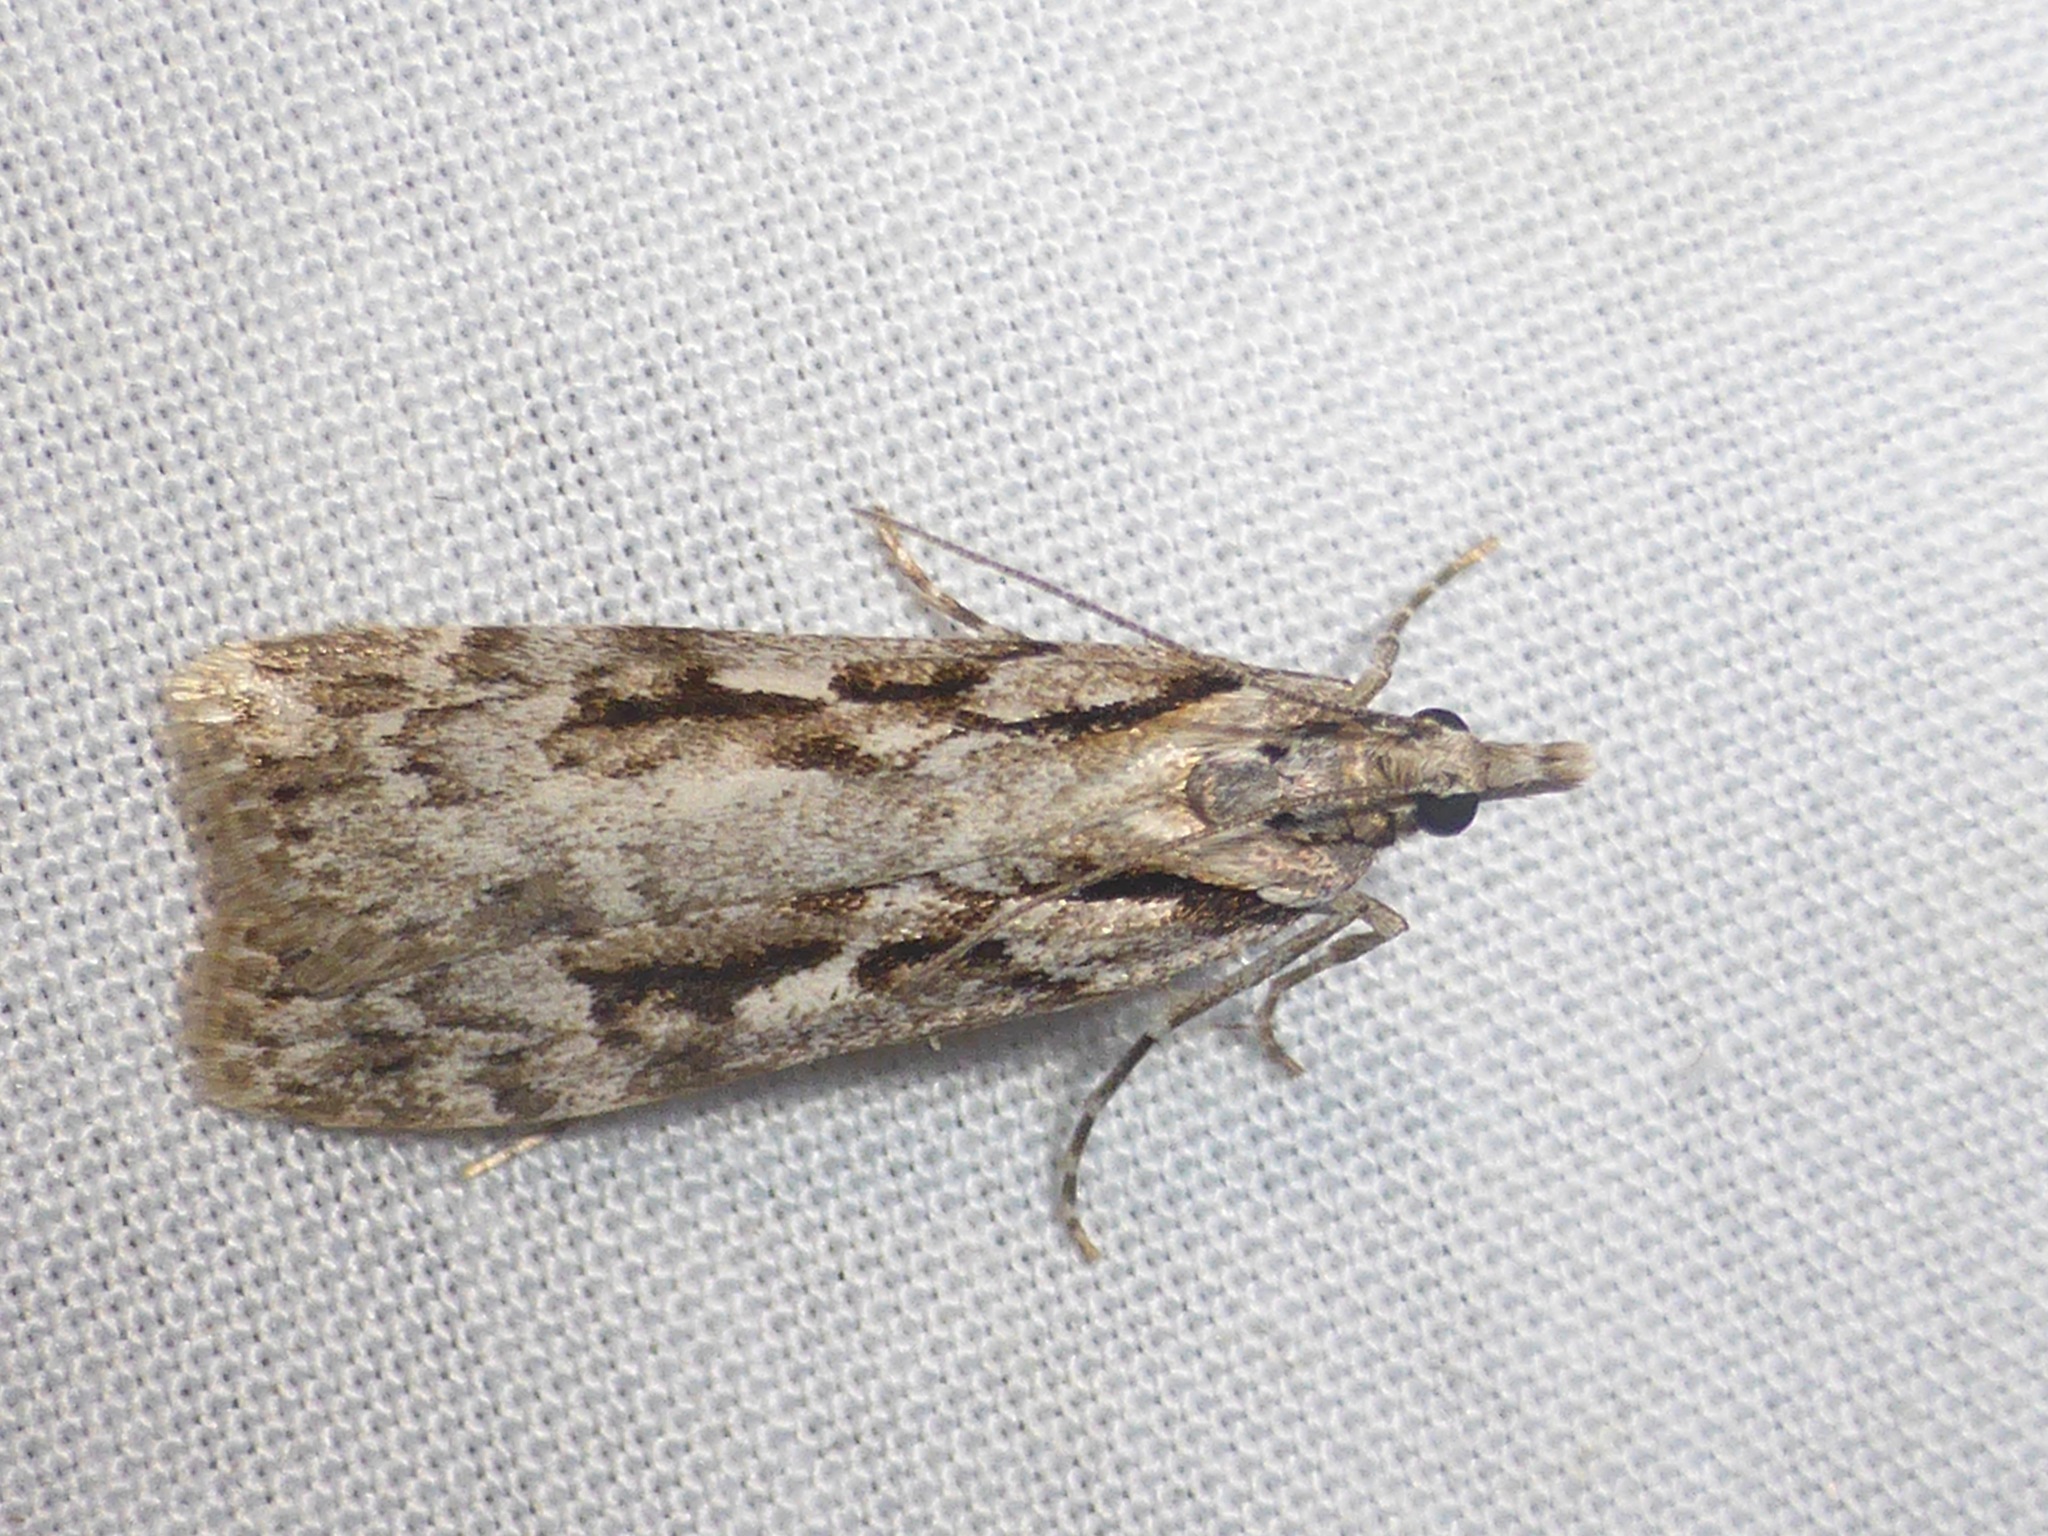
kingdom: Animalia
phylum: Arthropoda
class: Insecta
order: Lepidoptera
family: Crambidae
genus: Scoparia
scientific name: Scoparia halopis
